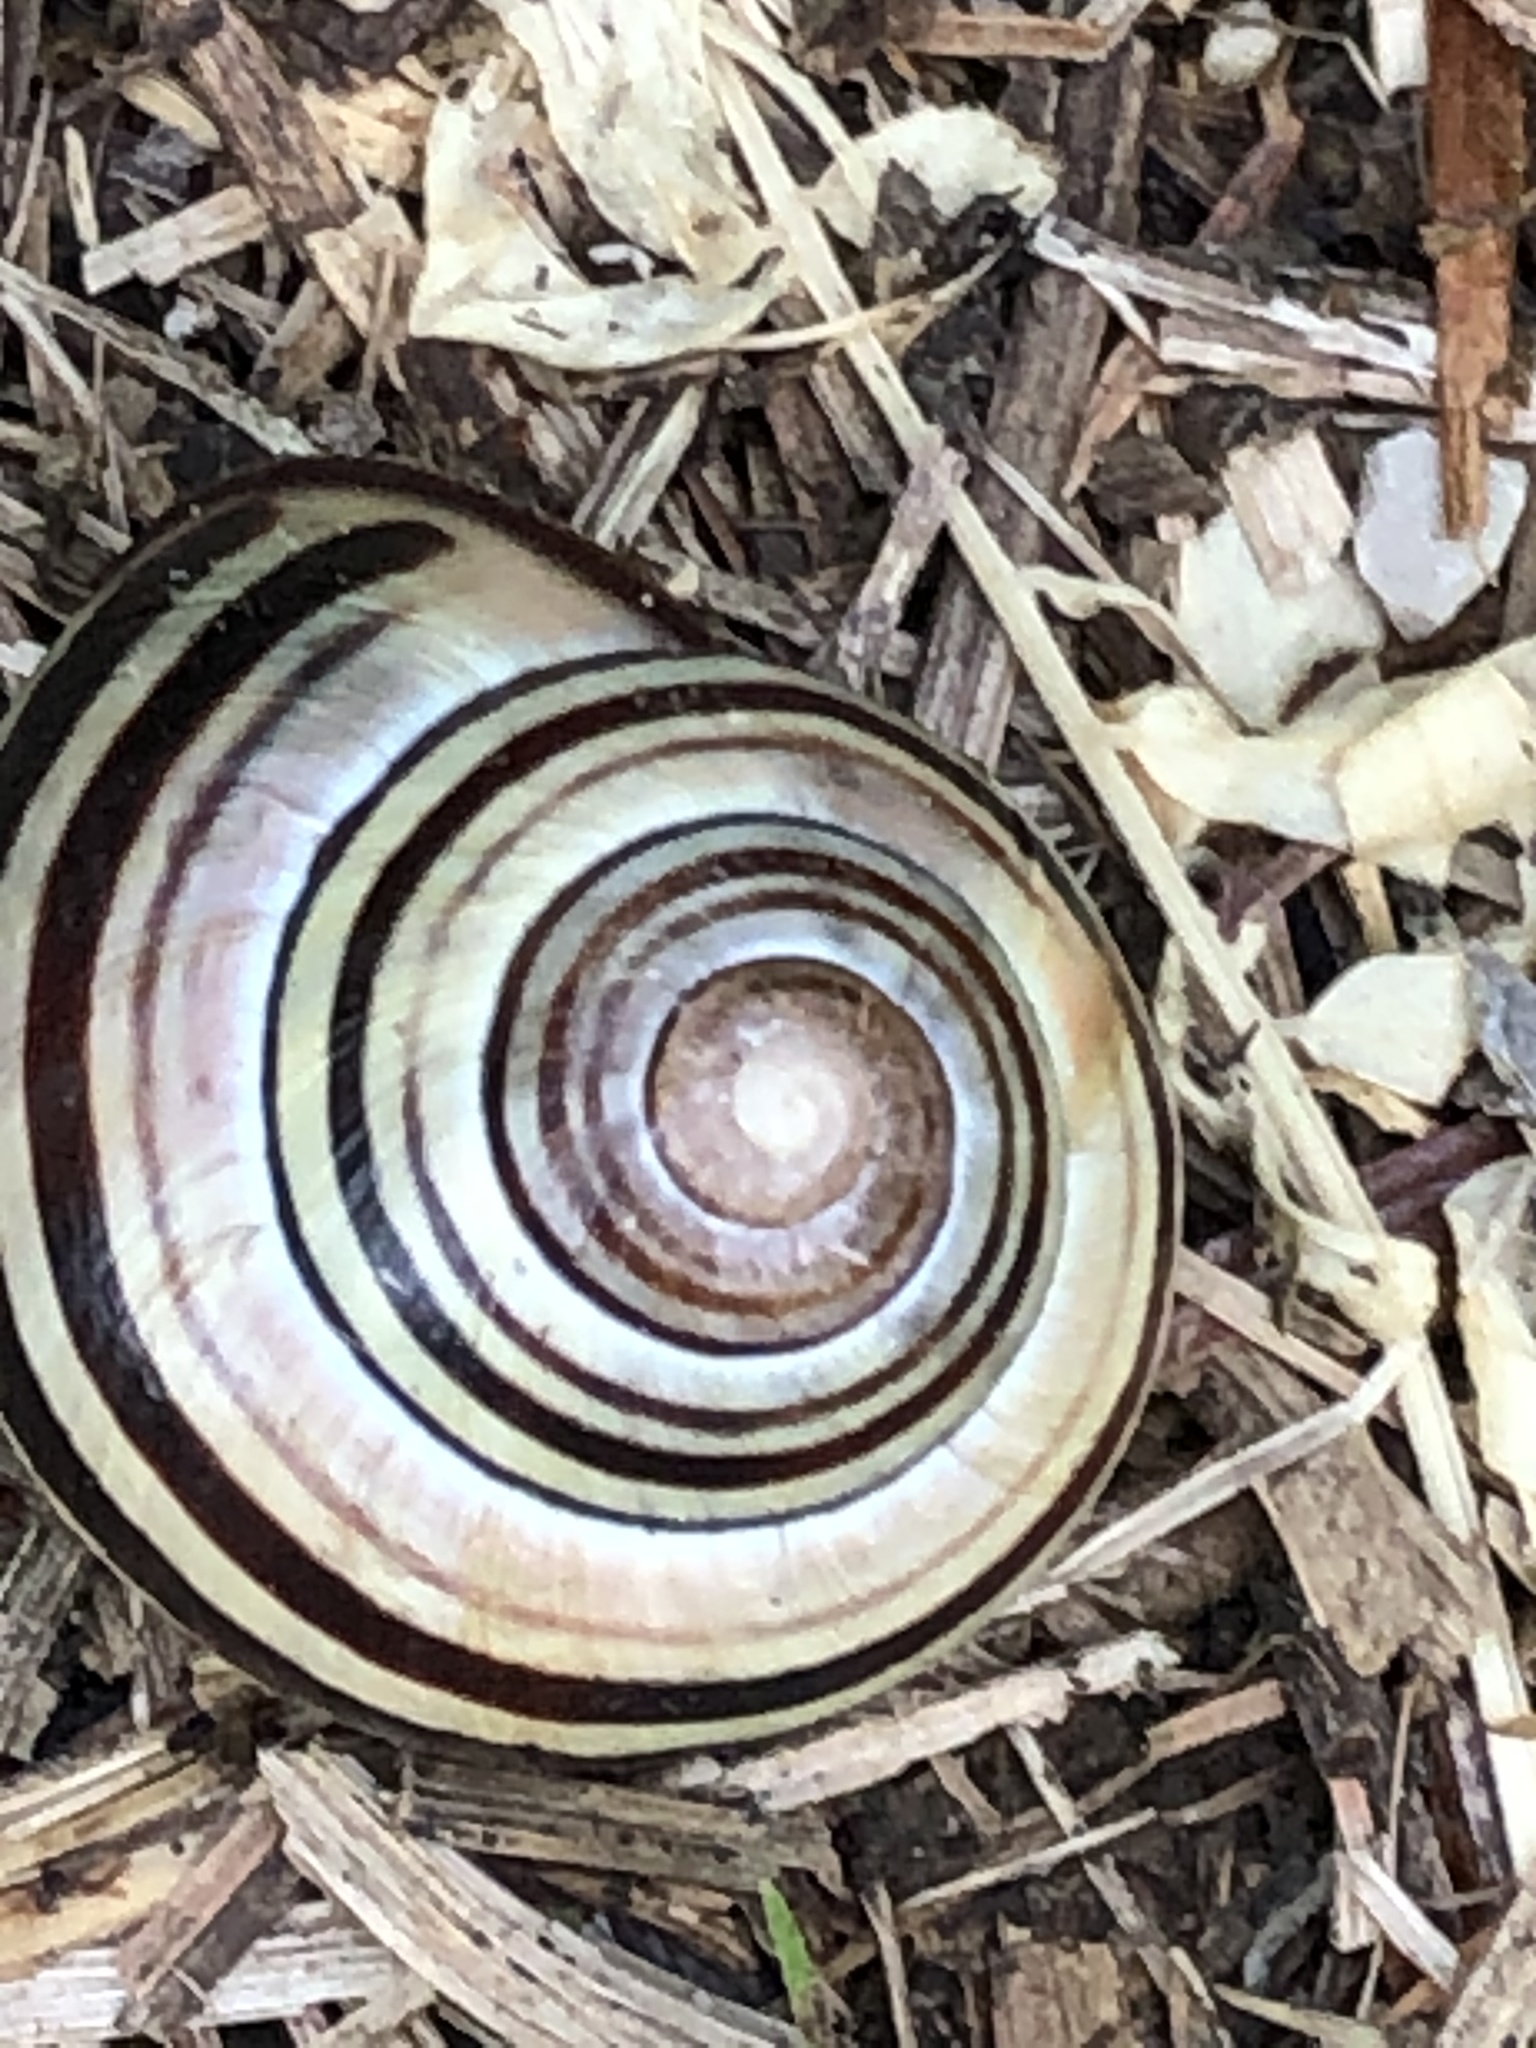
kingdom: Animalia
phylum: Mollusca
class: Gastropoda
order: Stylommatophora
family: Helicidae
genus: Cepaea
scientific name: Cepaea nemoralis
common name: Grovesnail
